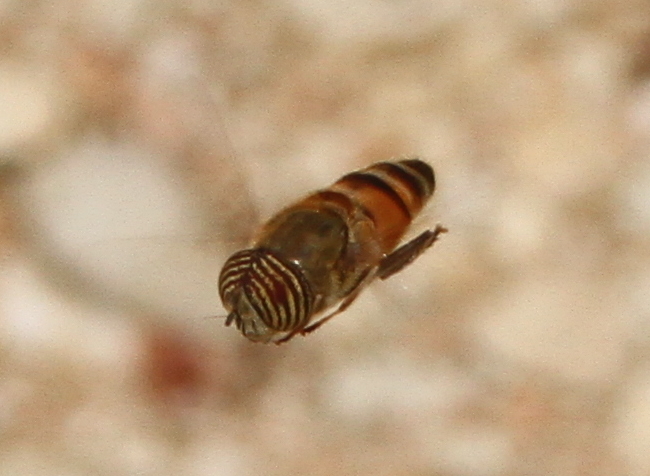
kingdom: Animalia
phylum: Arthropoda
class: Insecta
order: Diptera
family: Syrphidae
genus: Eristalinus
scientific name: Eristalinus taeniops
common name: Syrphid fly
